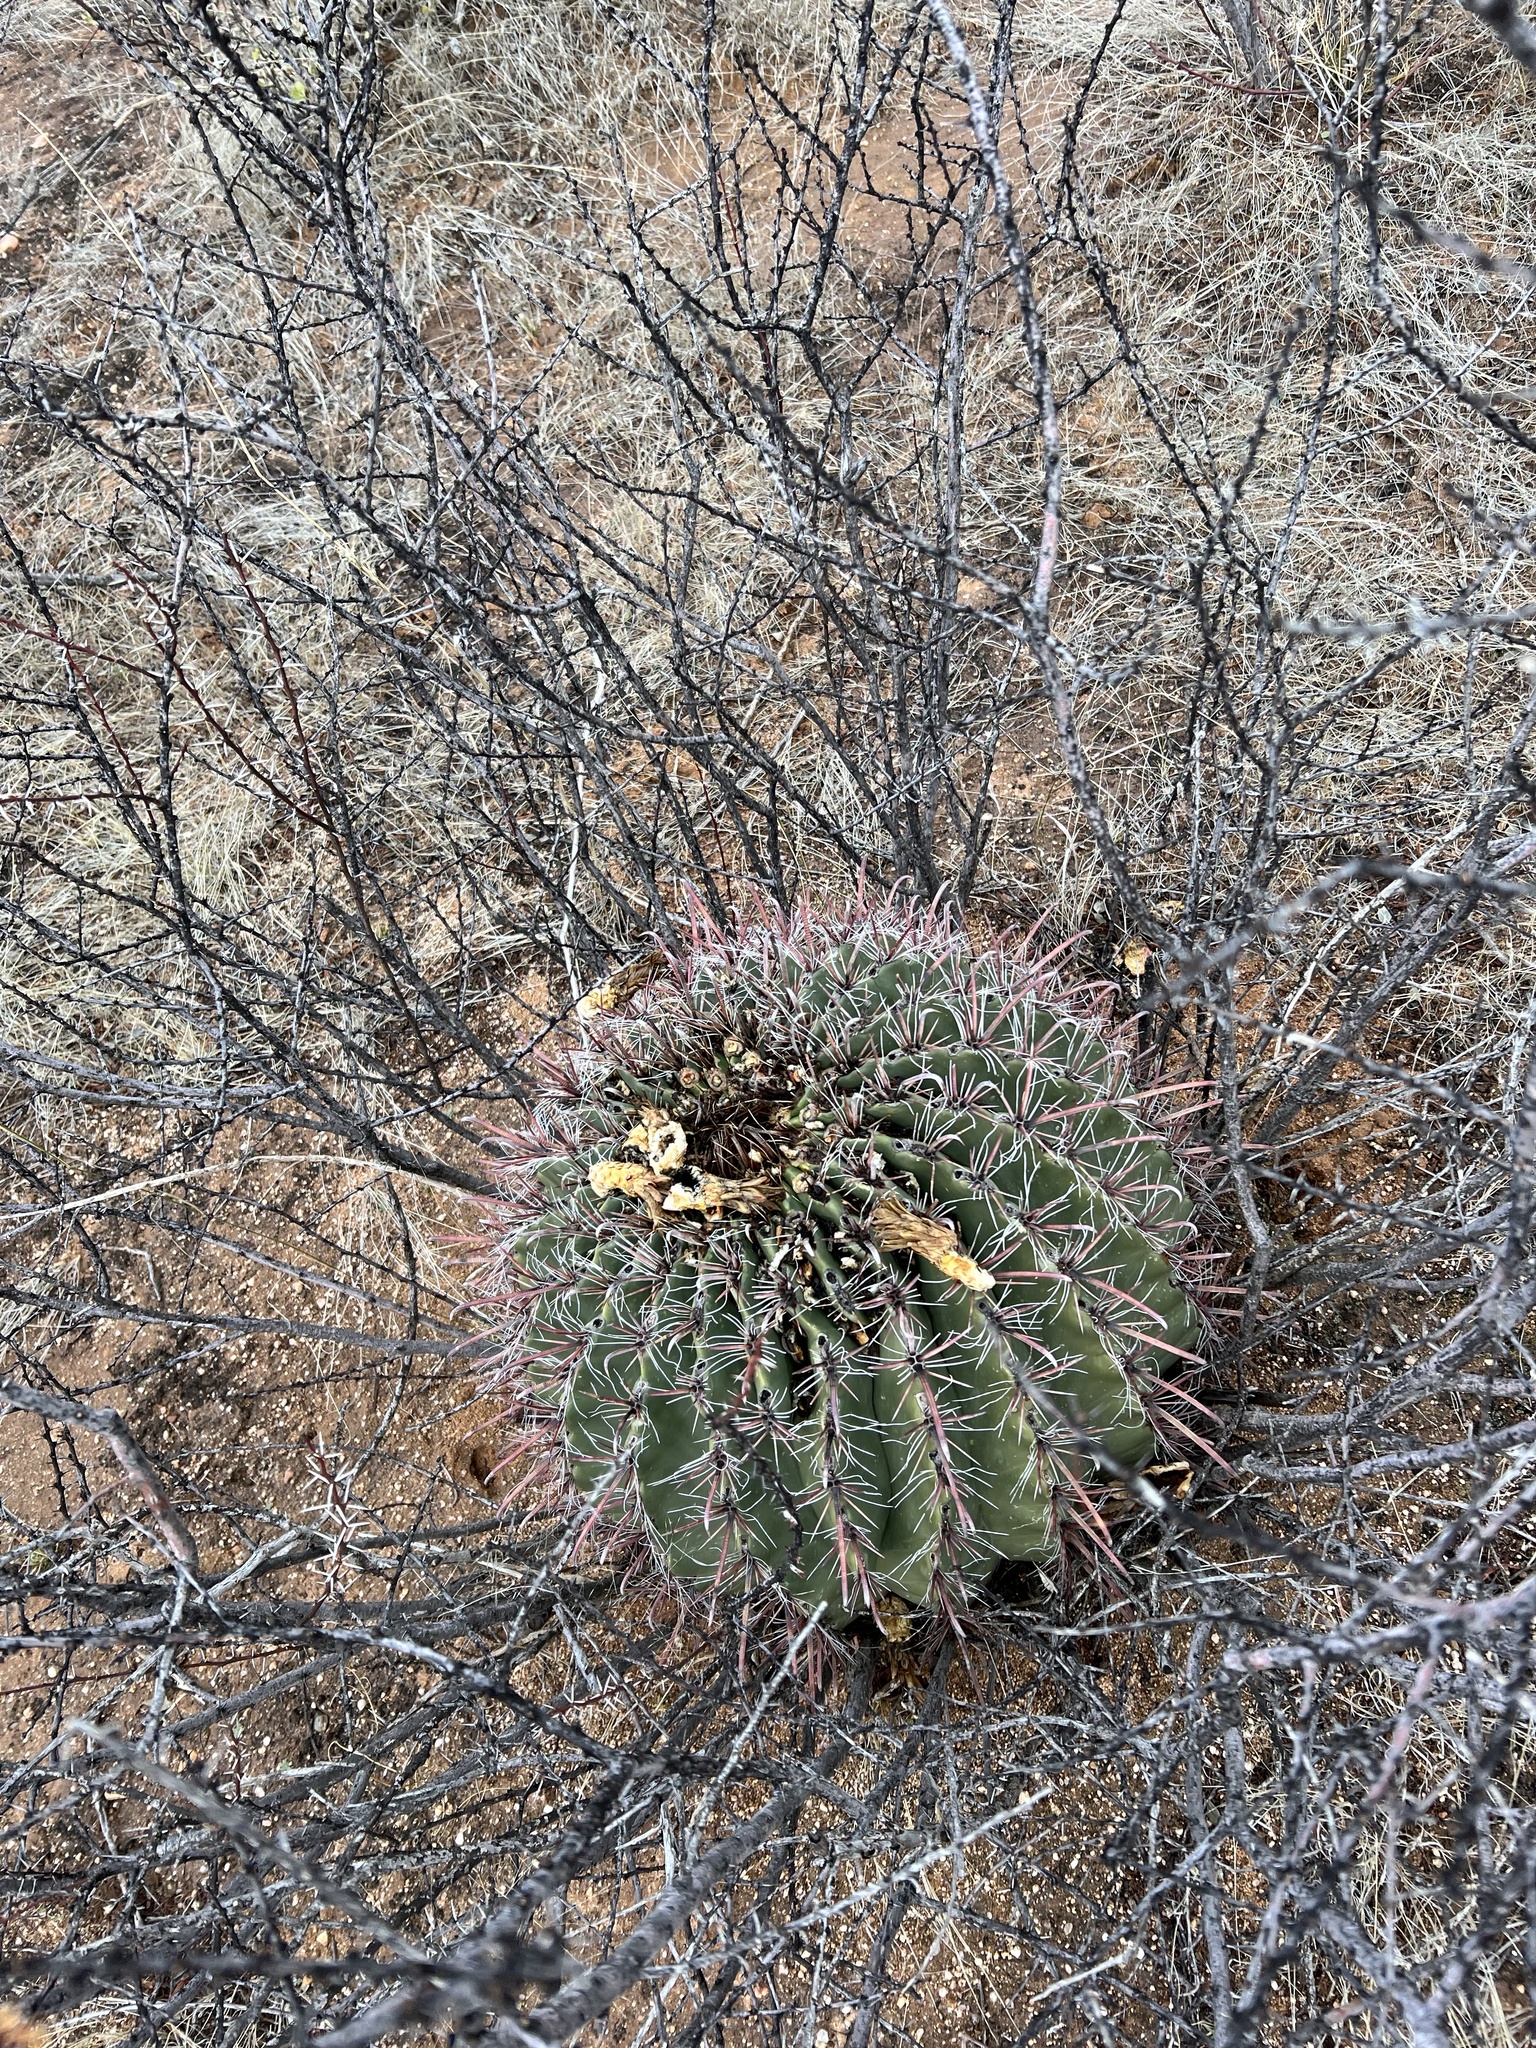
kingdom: Plantae
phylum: Tracheophyta
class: Magnoliopsida
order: Caryophyllales
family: Cactaceae
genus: Ferocactus
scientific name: Ferocactus wislizeni
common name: Candy barrel cactus
